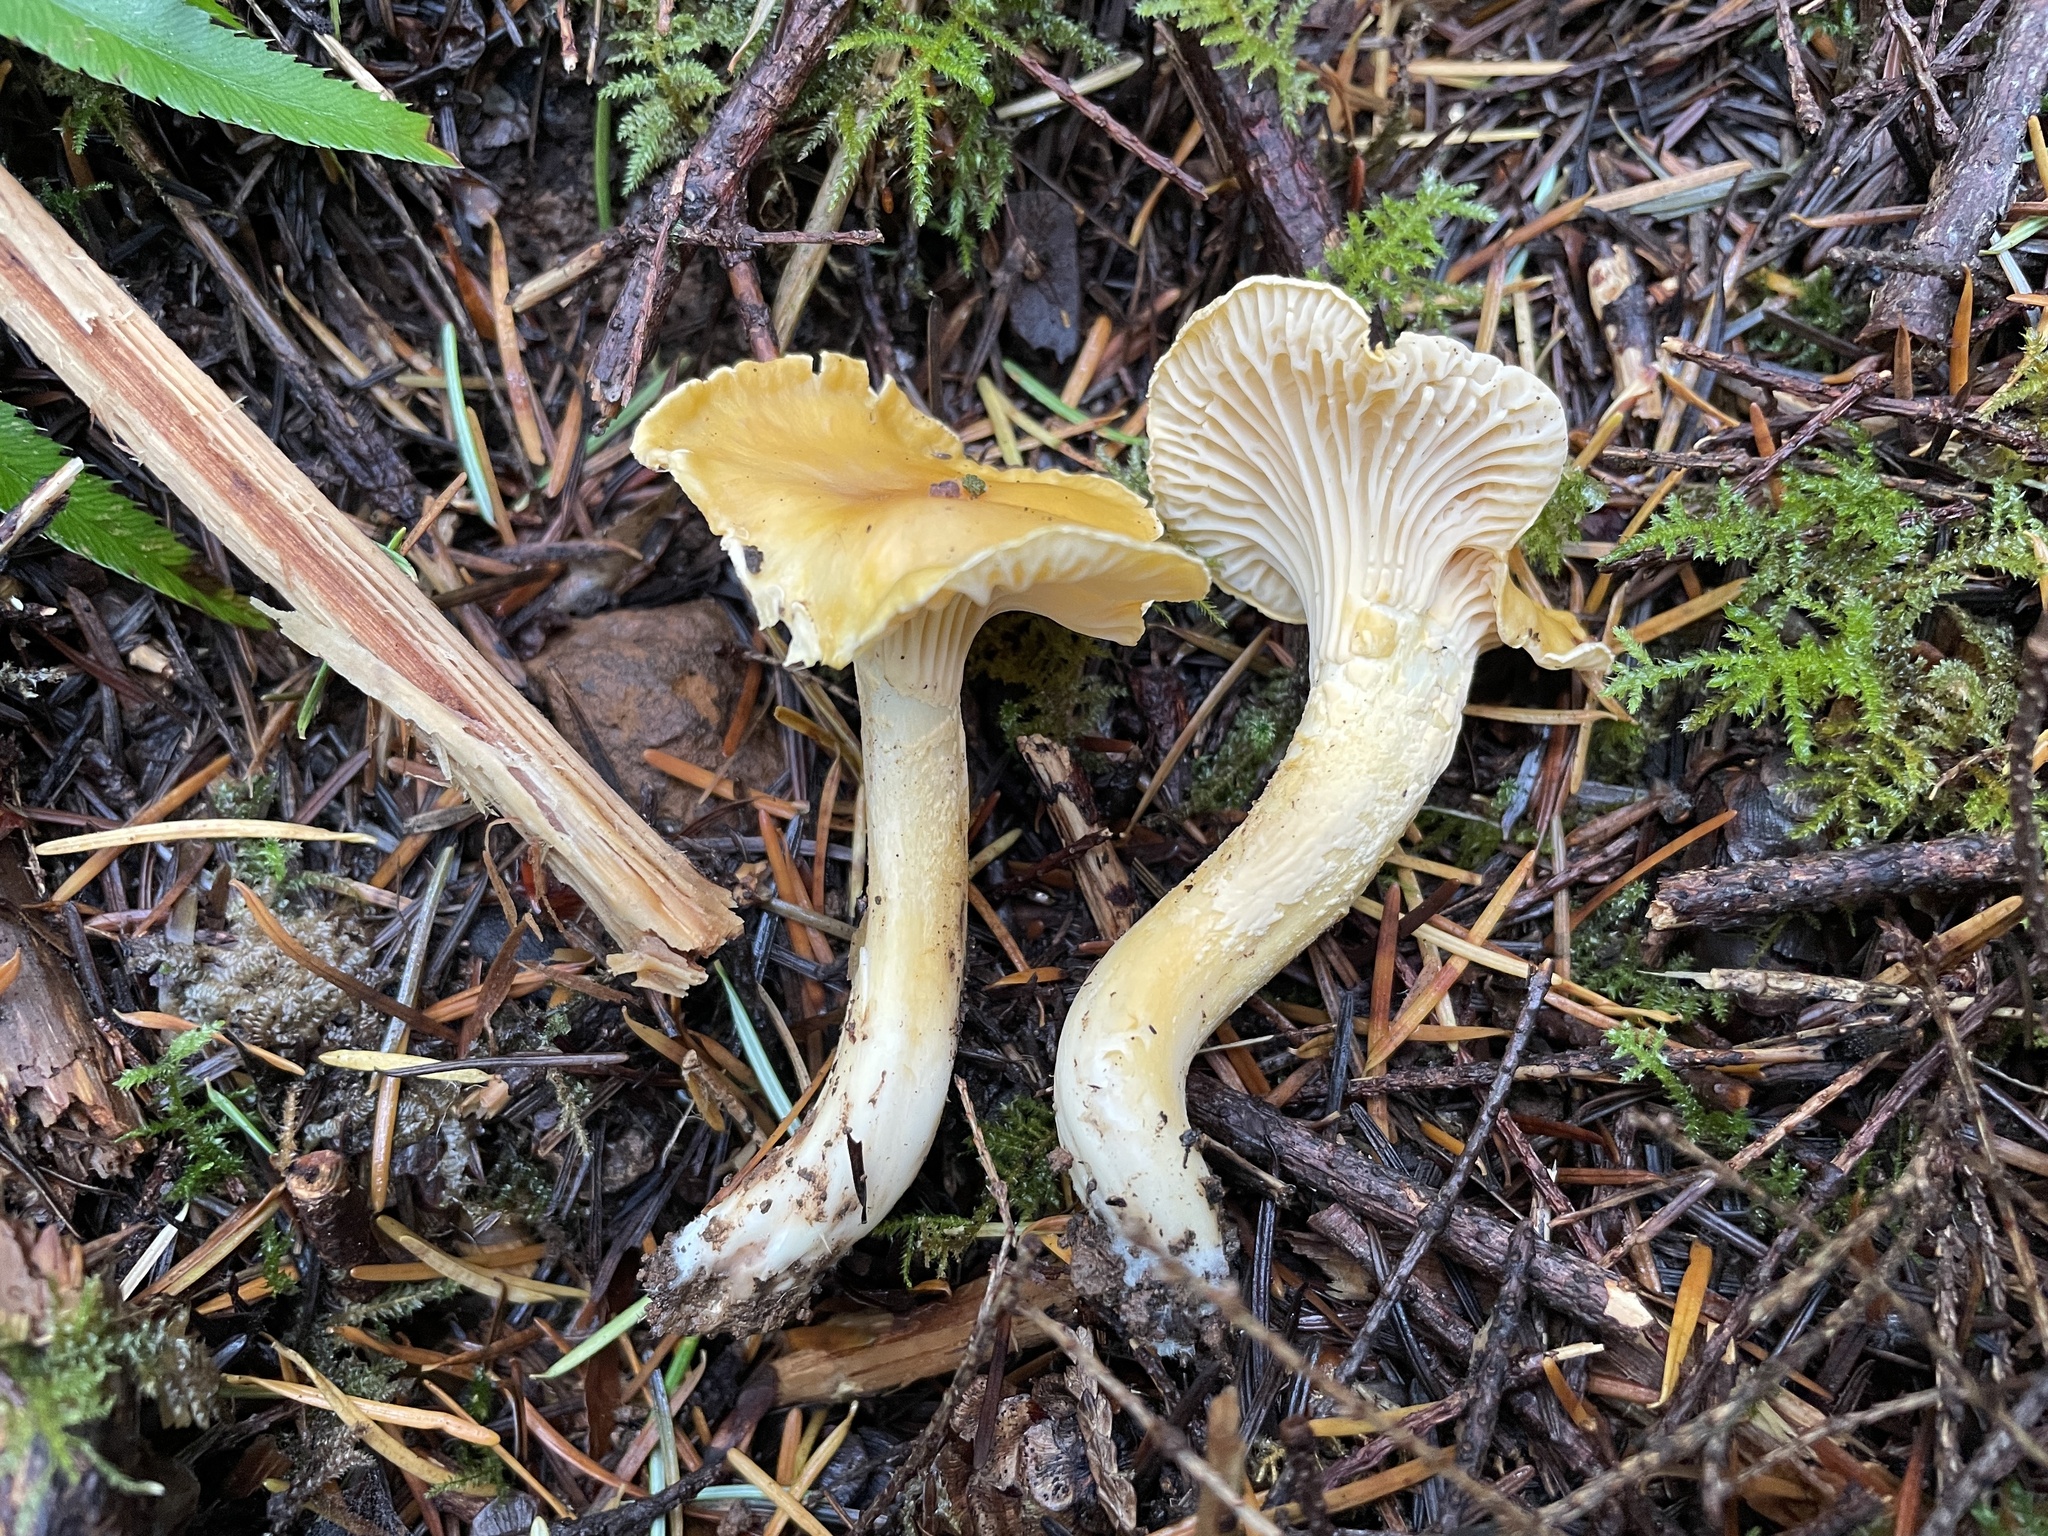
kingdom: Fungi
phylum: Basidiomycota
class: Agaricomycetes
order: Cantharellales
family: Hydnaceae
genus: Cantharellus
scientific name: Cantharellus formosus
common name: Pacific golden chanterelle
